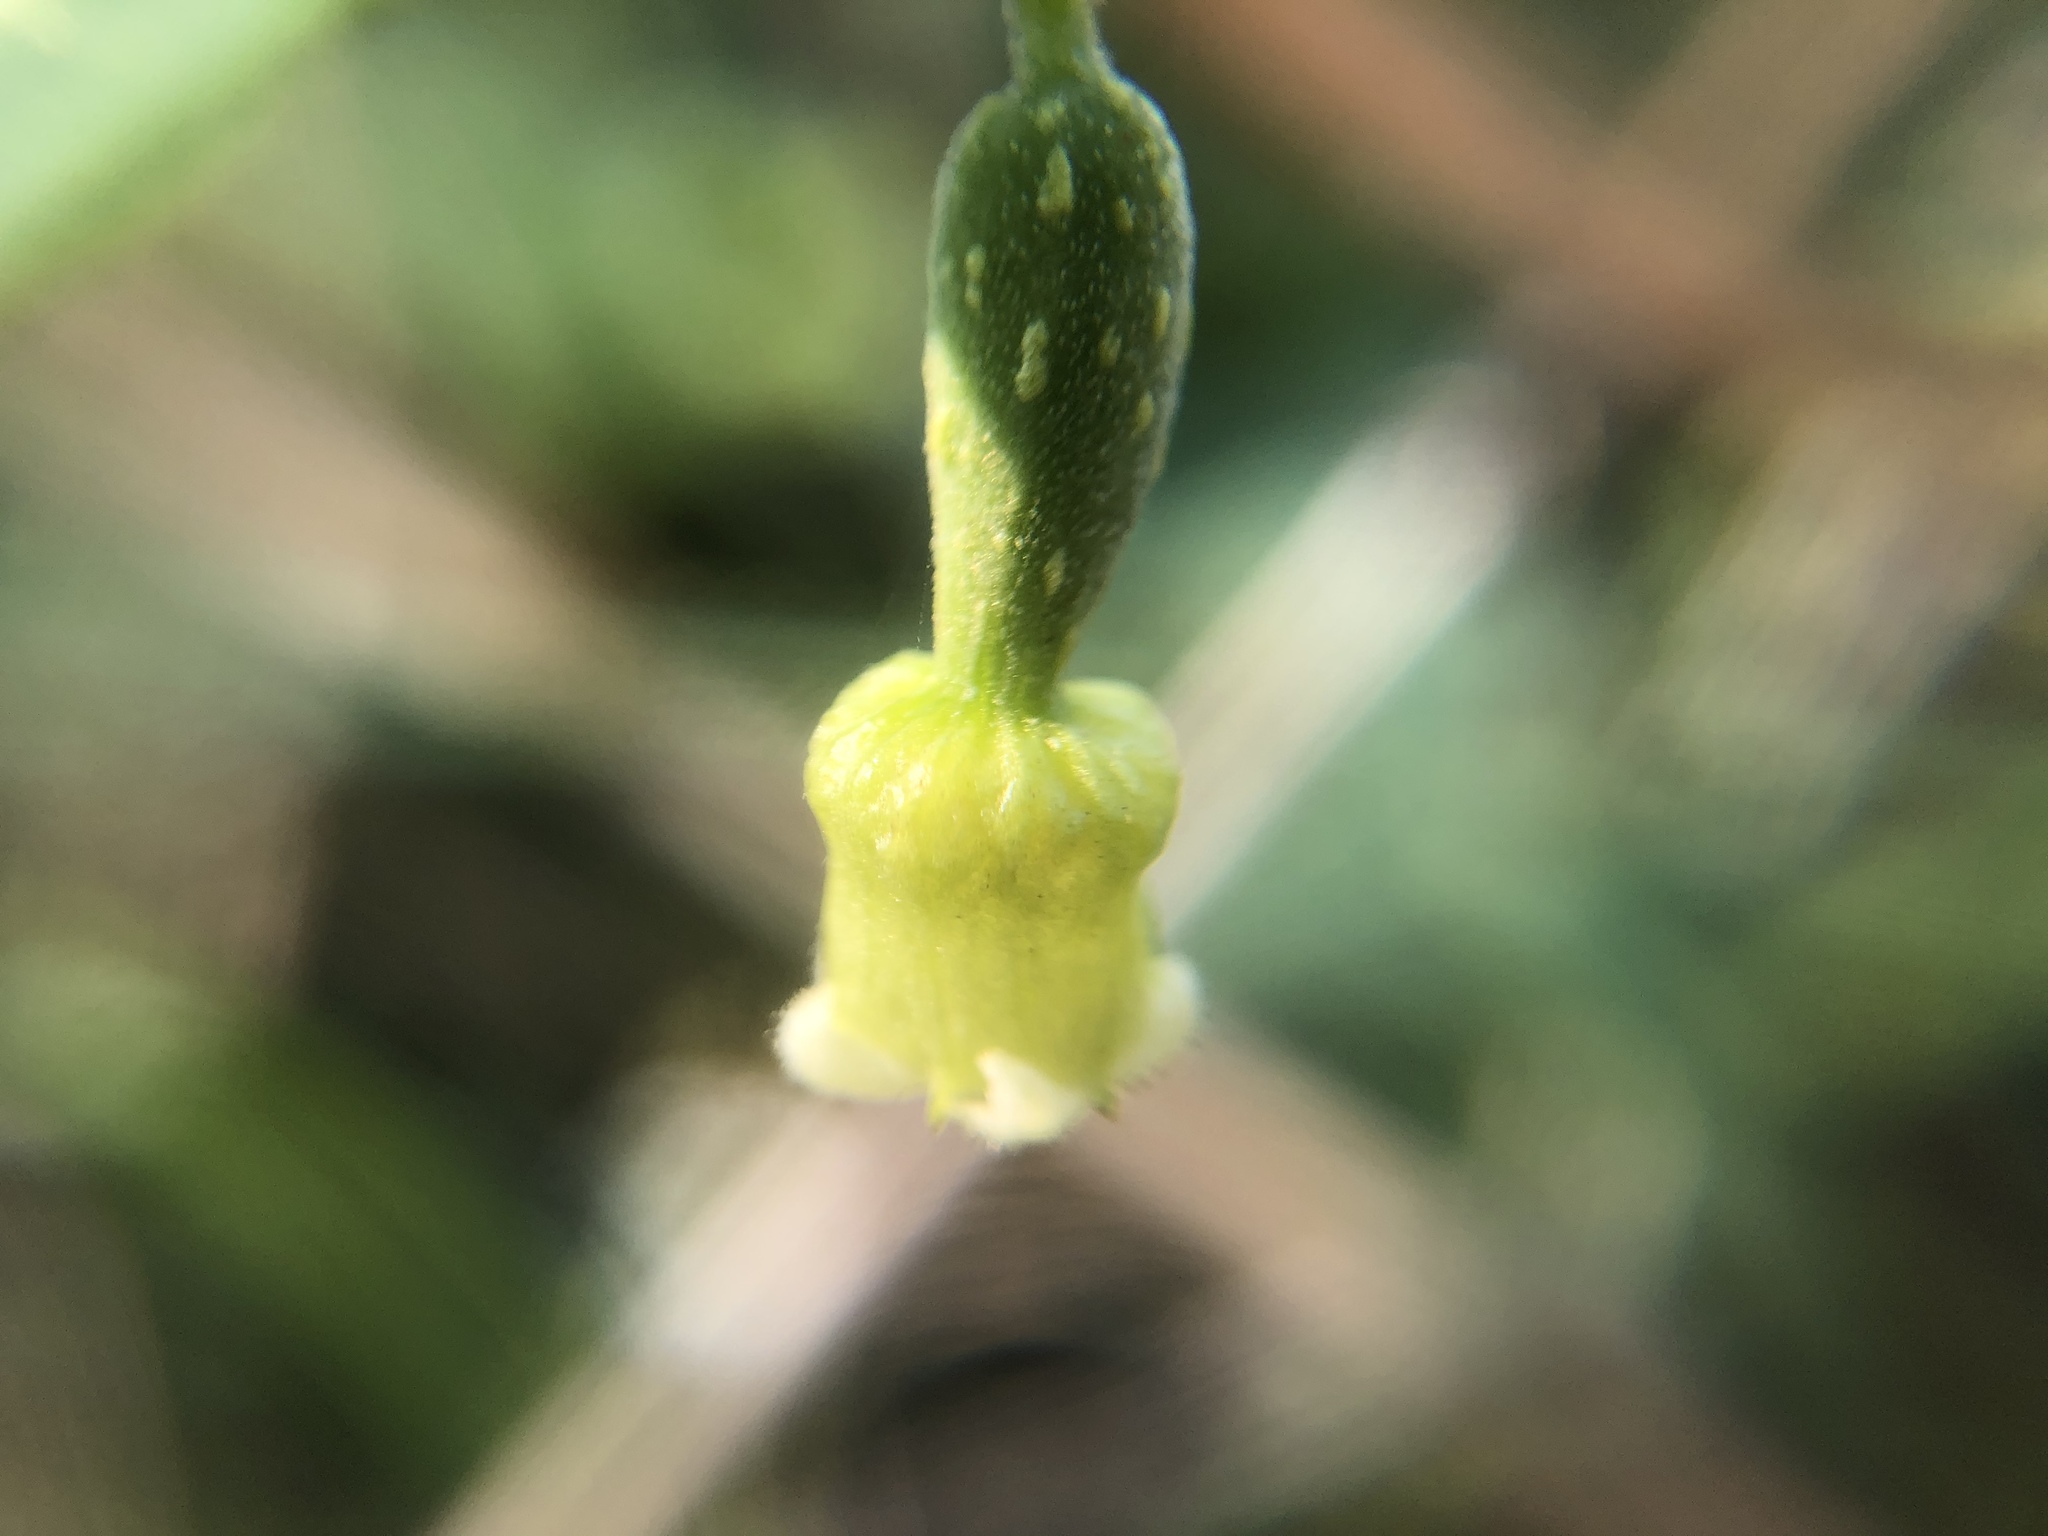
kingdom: Plantae
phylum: Tracheophyta
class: Magnoliopsida
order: Cucurbitales
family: Cucurbitaceae
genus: Solena
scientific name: Solena amplexicaulis
